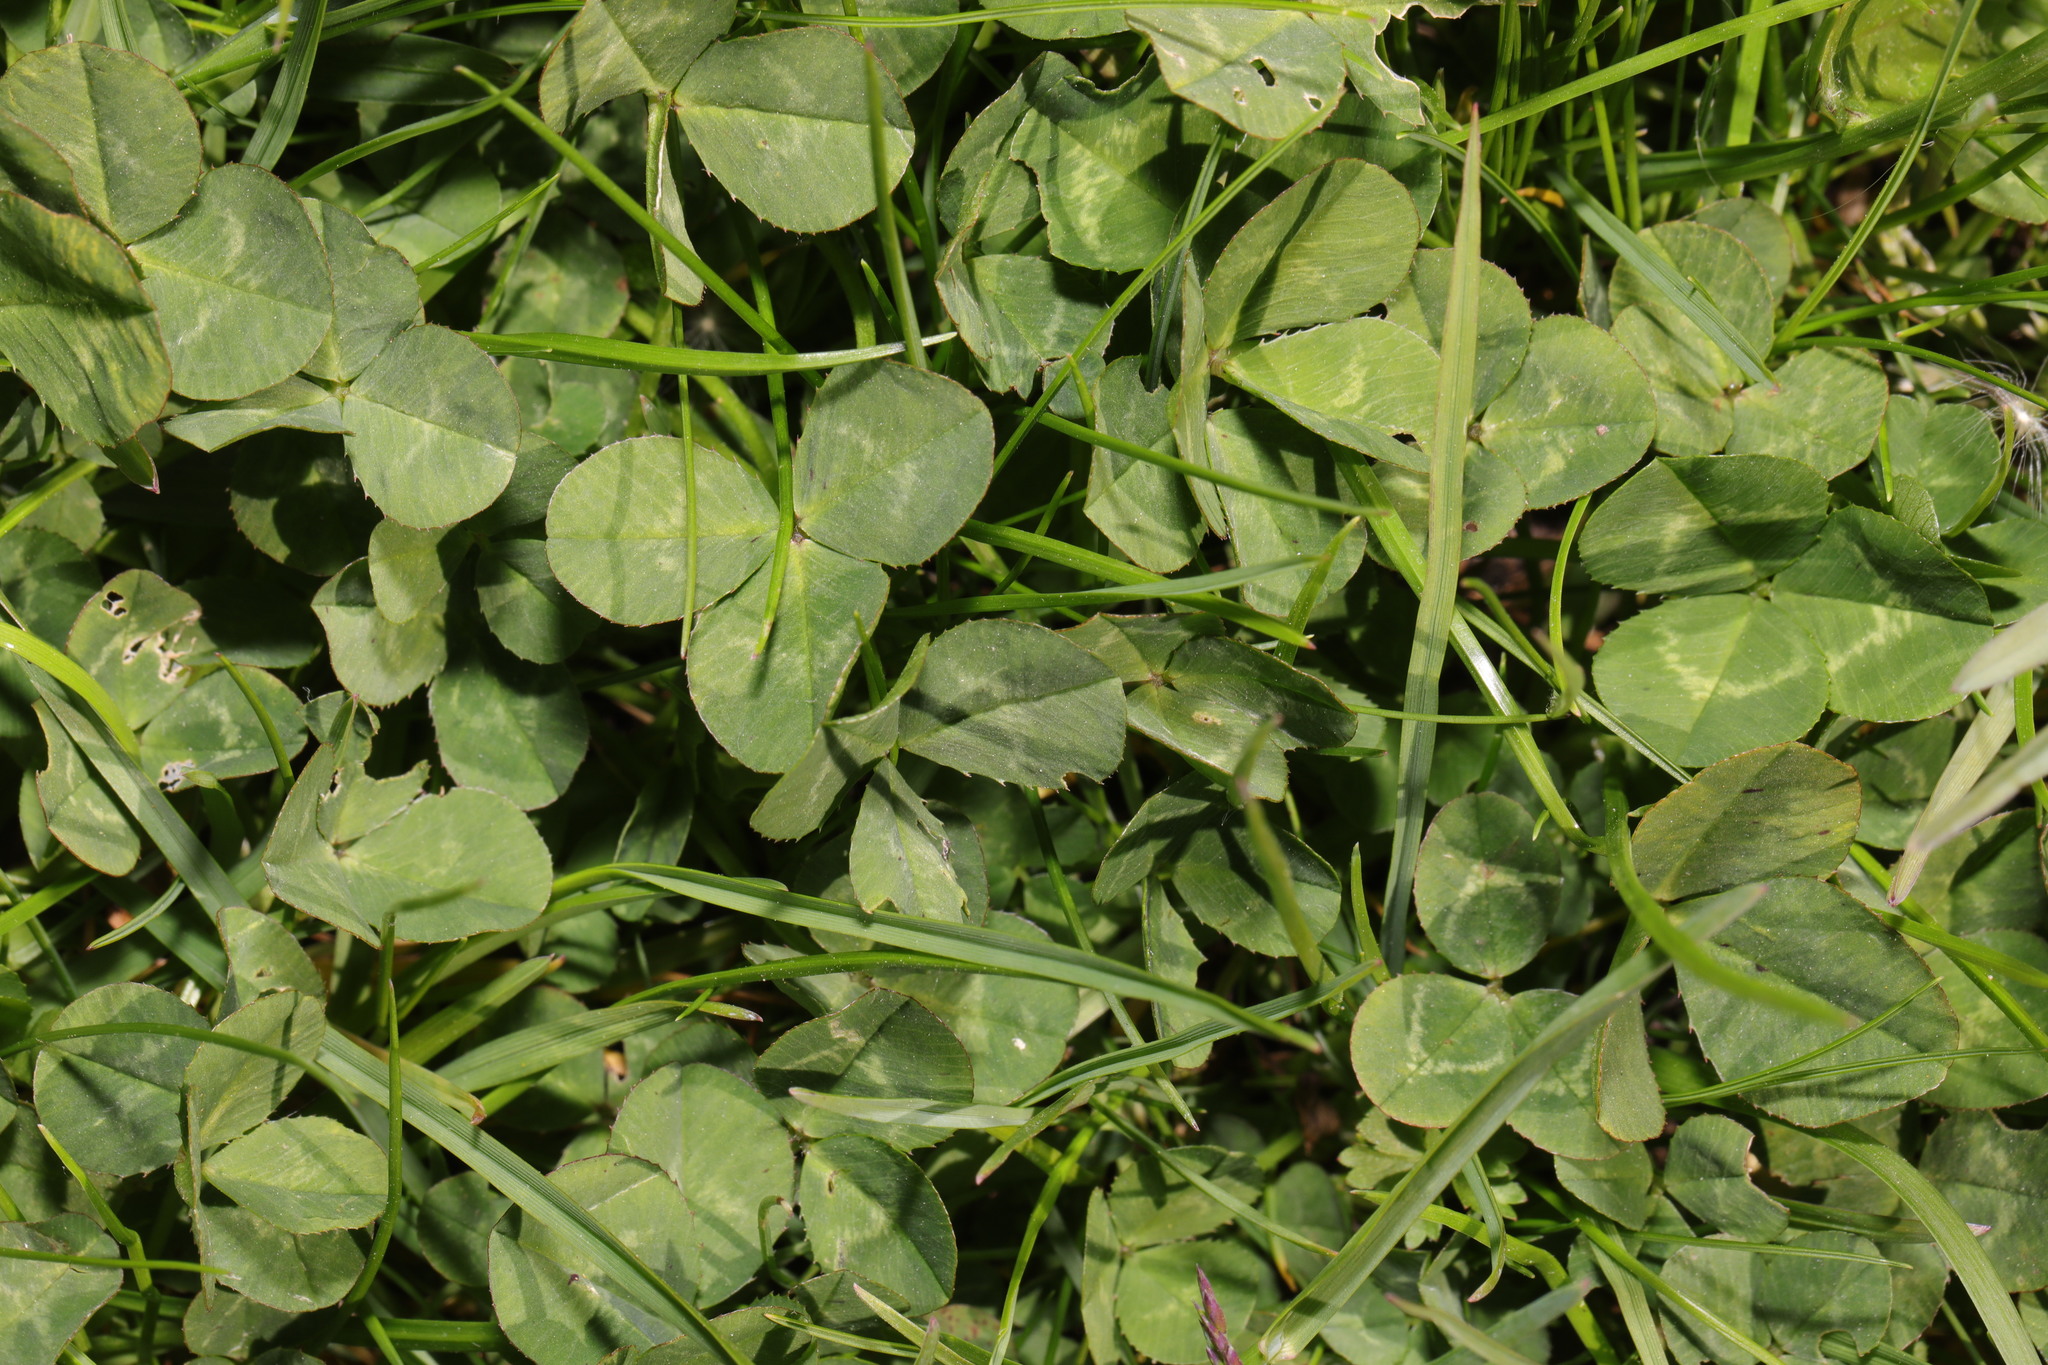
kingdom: Plantae
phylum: Tracheophyta
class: Magnoliopsida
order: Fabales
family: Fabaceae
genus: Trifolium
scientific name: Trifolium repens
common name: White clover
